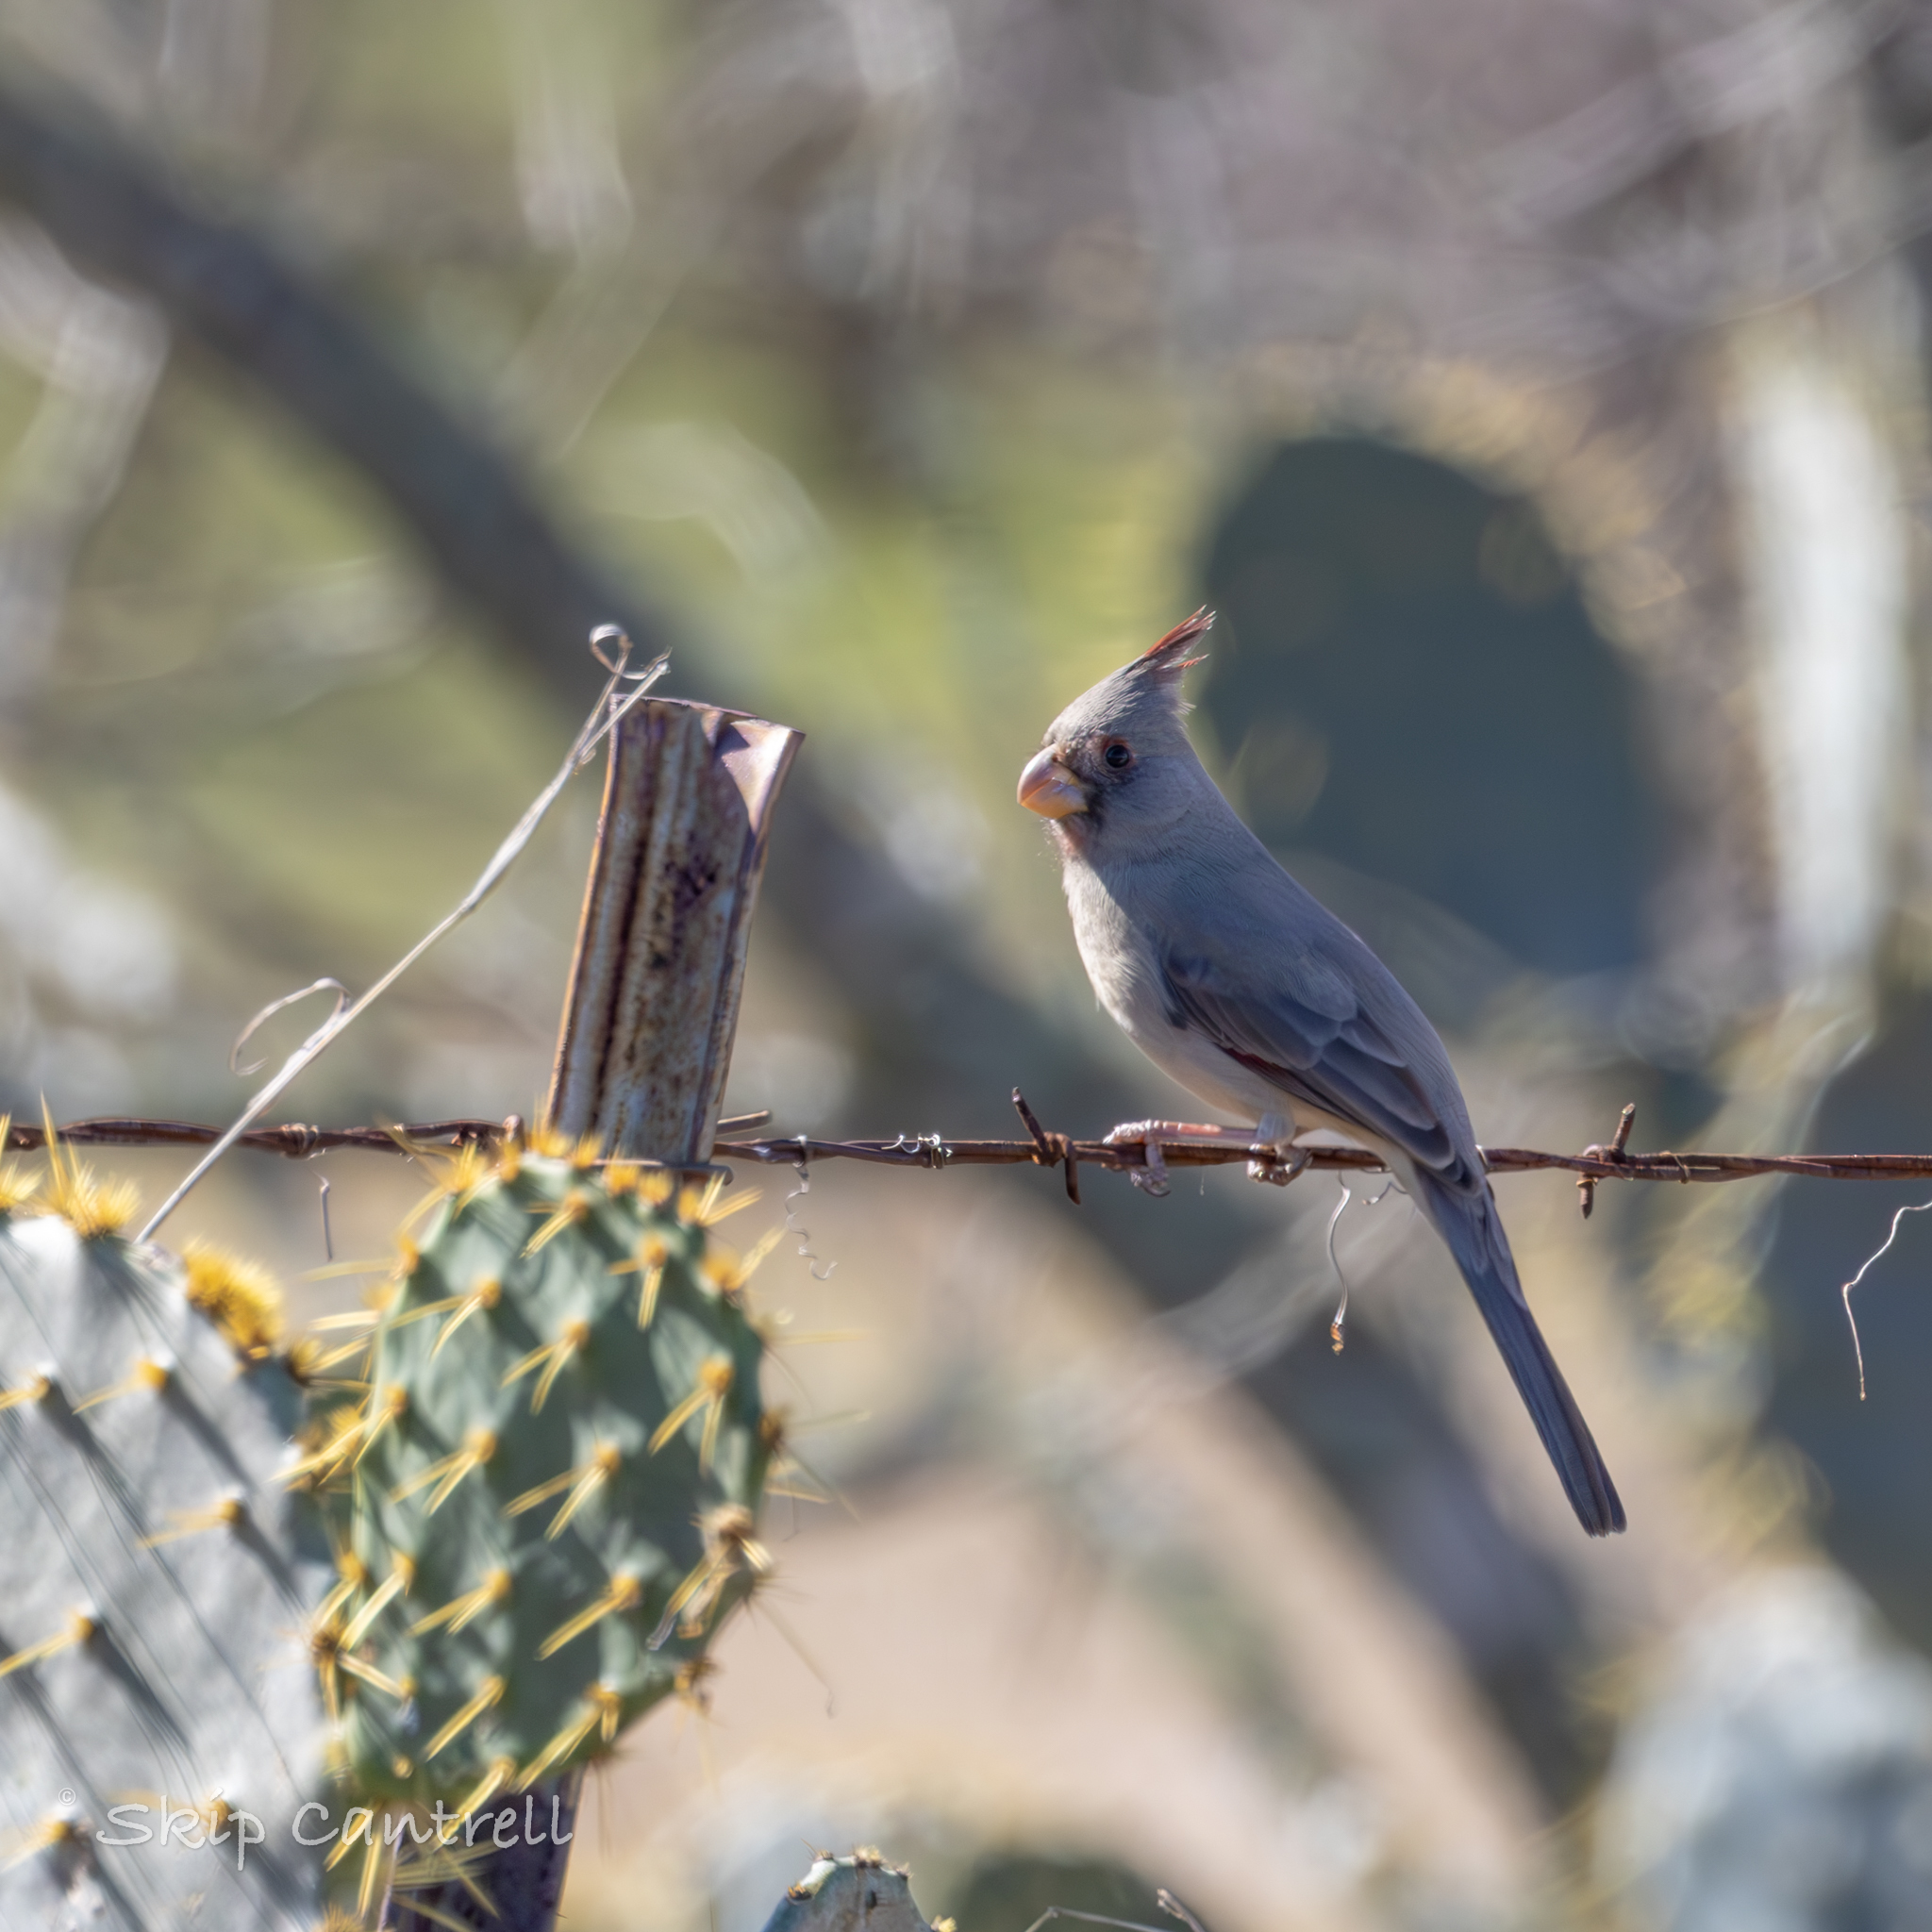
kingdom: Animalia
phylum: Chordata
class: Aves
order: Passeriformes
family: Cardinalidae
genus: Cardinalis
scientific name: Cardinalis sinuatus
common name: Pyrrhuloxia
